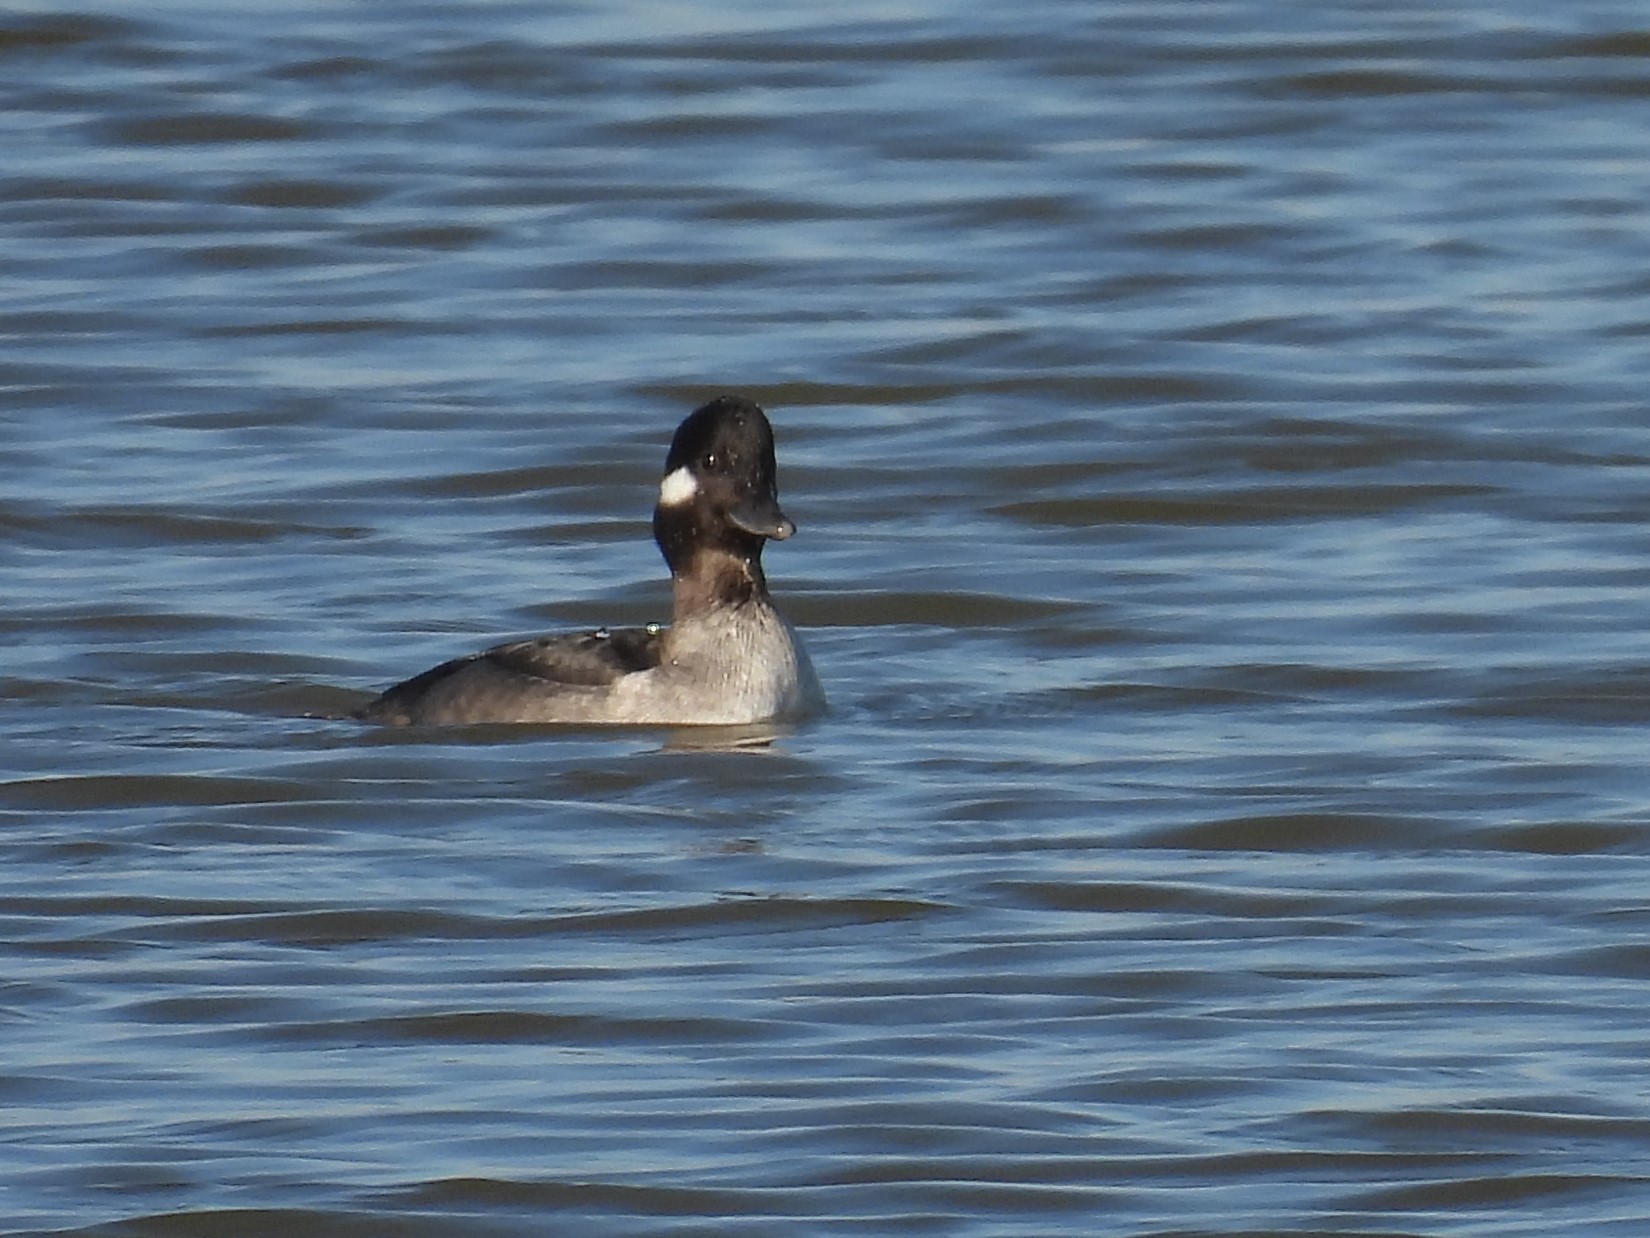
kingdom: Animalia
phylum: Chordata
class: Aves
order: Anseriformes
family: Anatidae
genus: Bucephala
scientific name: Bucephala albeola
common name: Bufflehead
